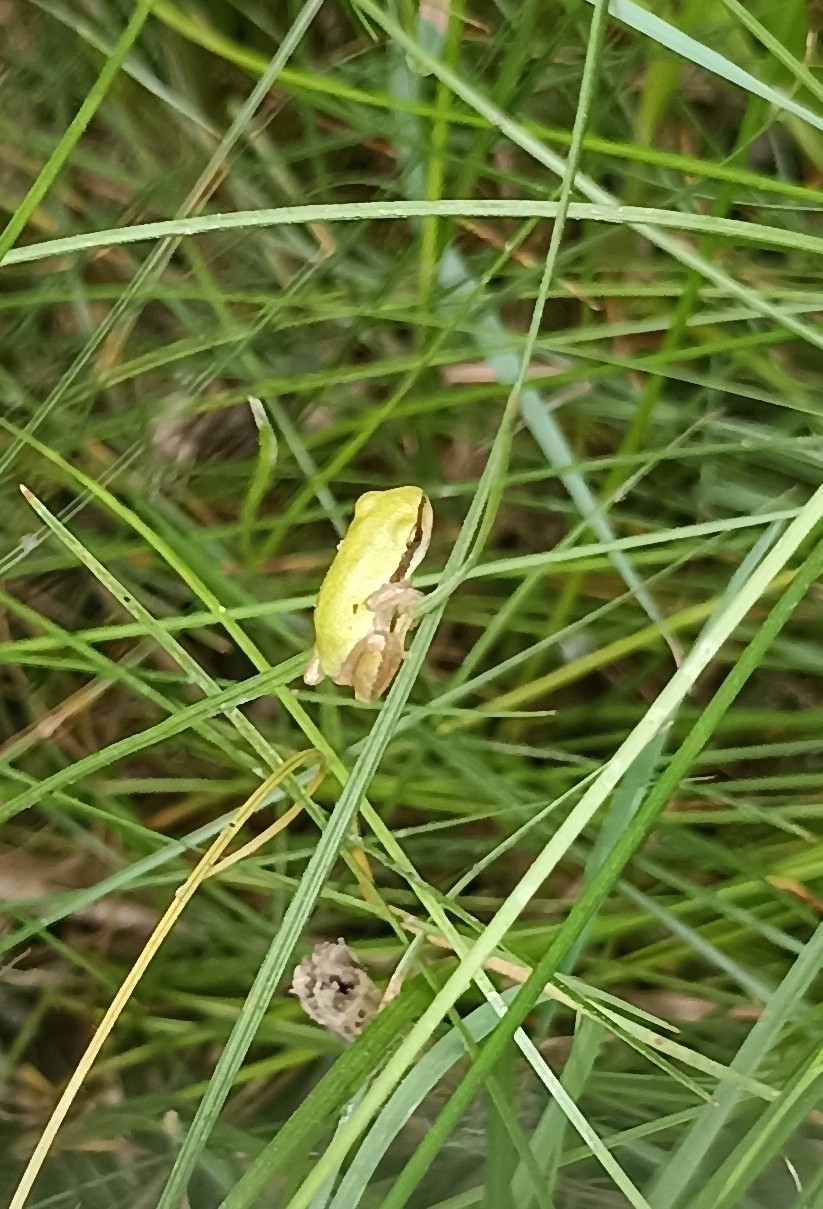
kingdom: Animalia
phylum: Chordata
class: Amphibia
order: Anura
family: Hylidae
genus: Hyla
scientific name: Hyla meridionalis
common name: Stripeless tree frog
